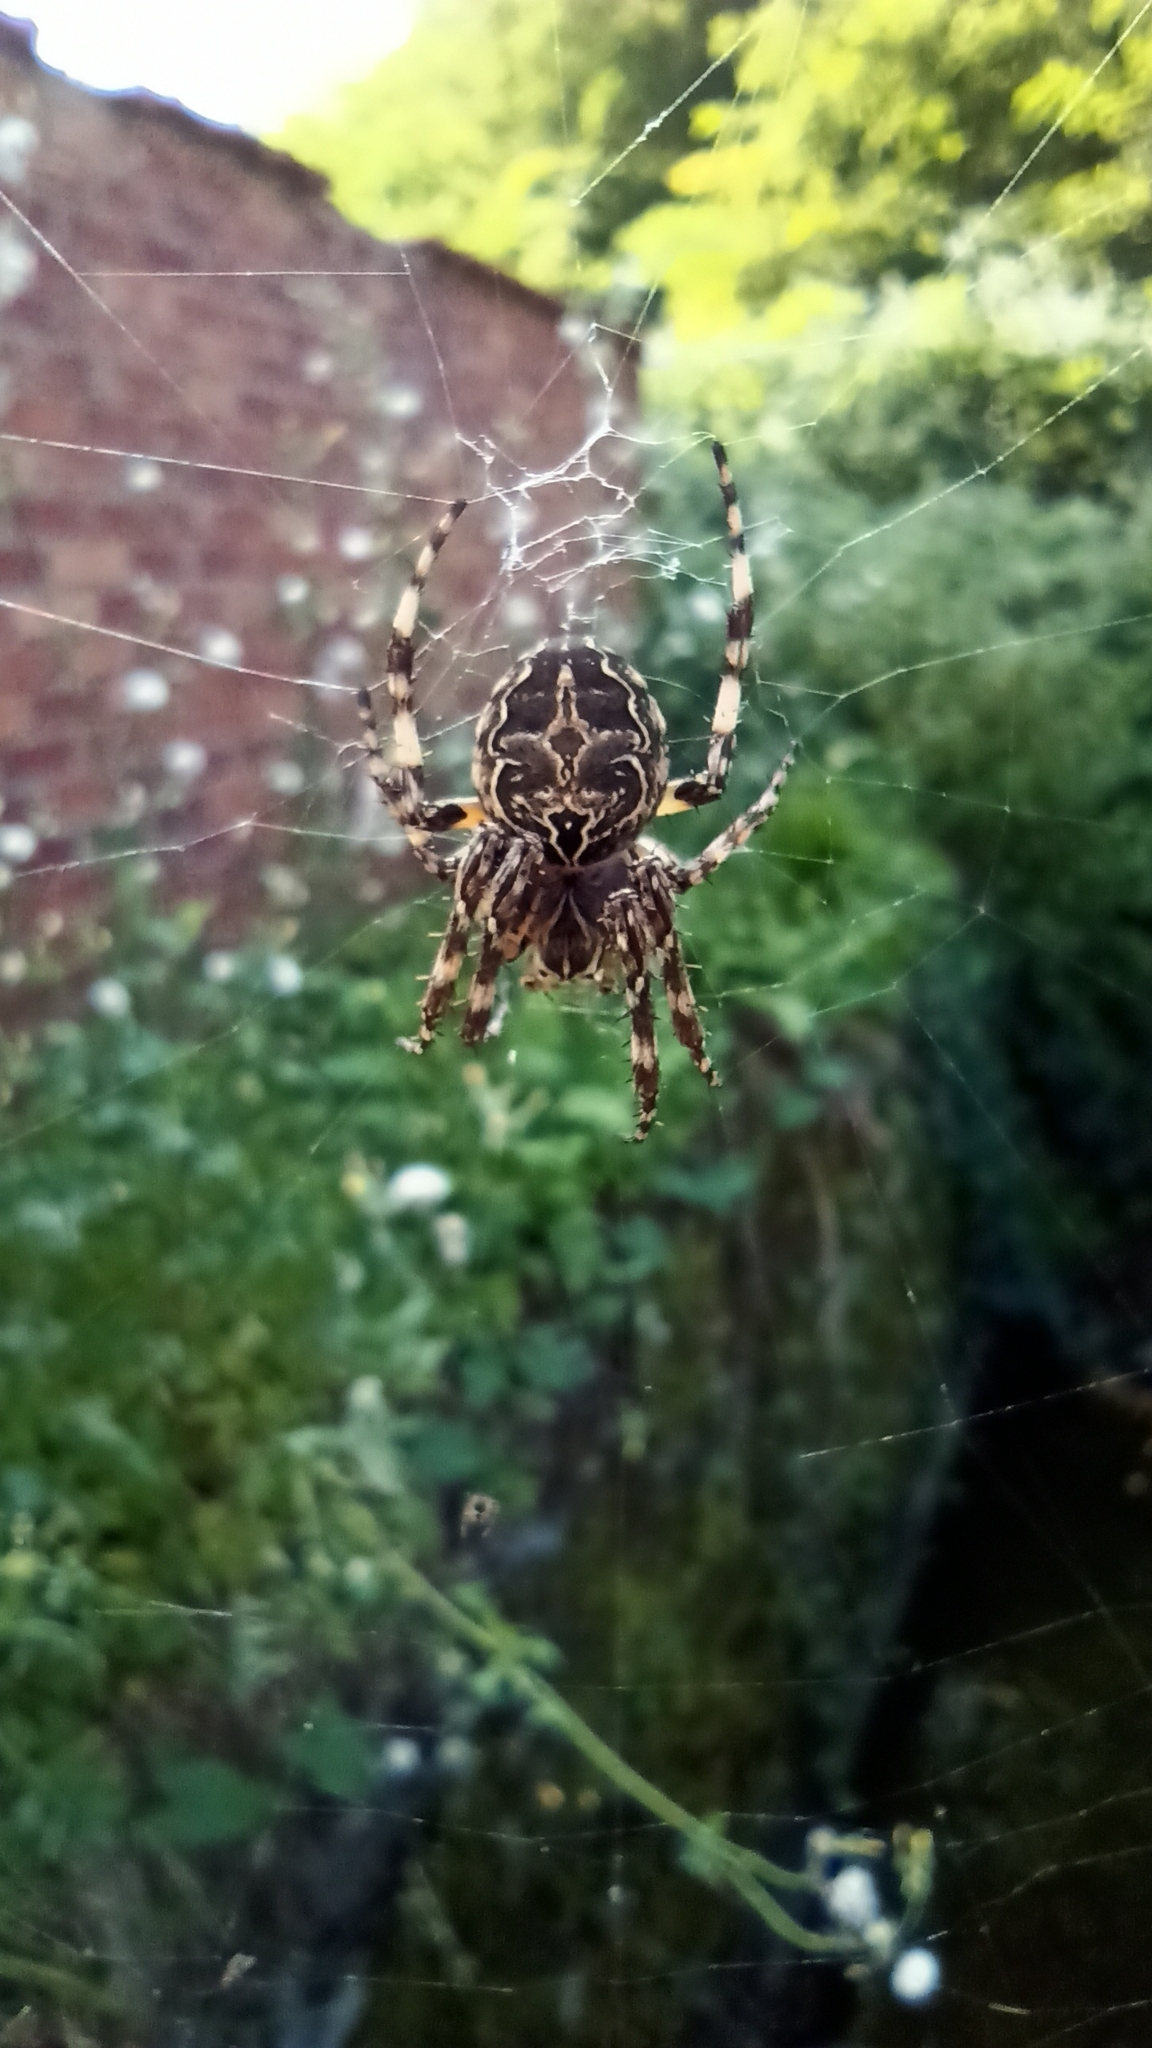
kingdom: Animalia
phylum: Arthropoda
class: Arachnida
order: Araneae
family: Araneidae
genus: Larinioides
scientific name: Larinioides sclopetarius
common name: Bridge orbweaver
